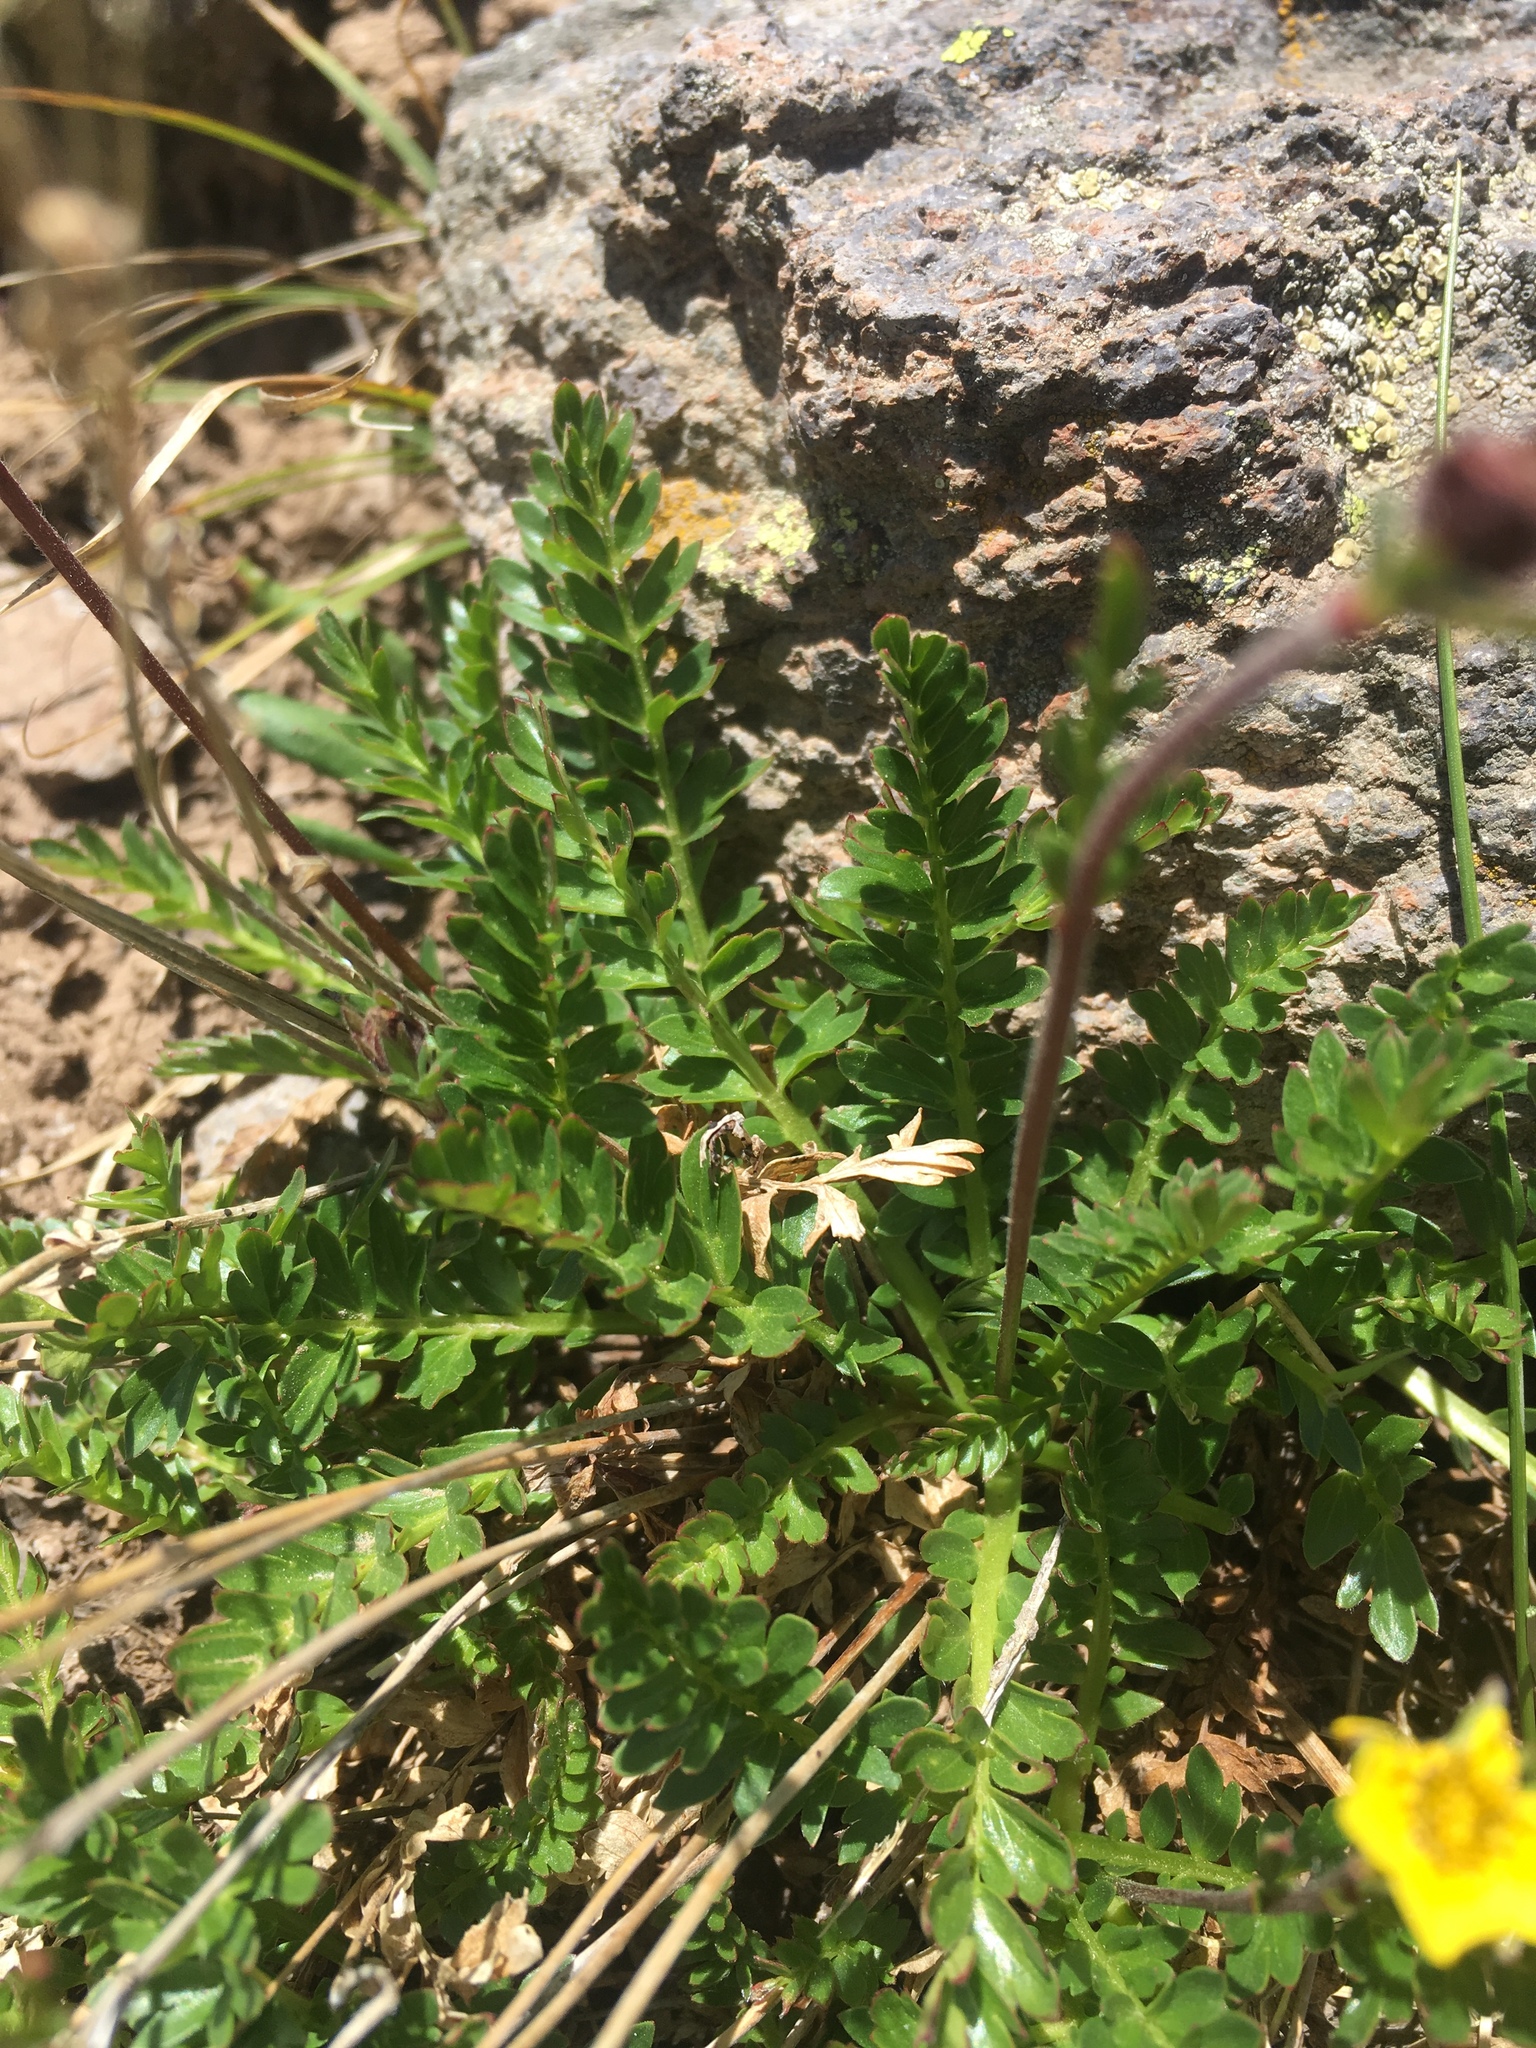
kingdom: Plantae
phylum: Tracheophyta
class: Magnoliopsida
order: Rosales
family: Rosaceae
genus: Geum
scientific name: Geum rossii
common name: Alpine avens
